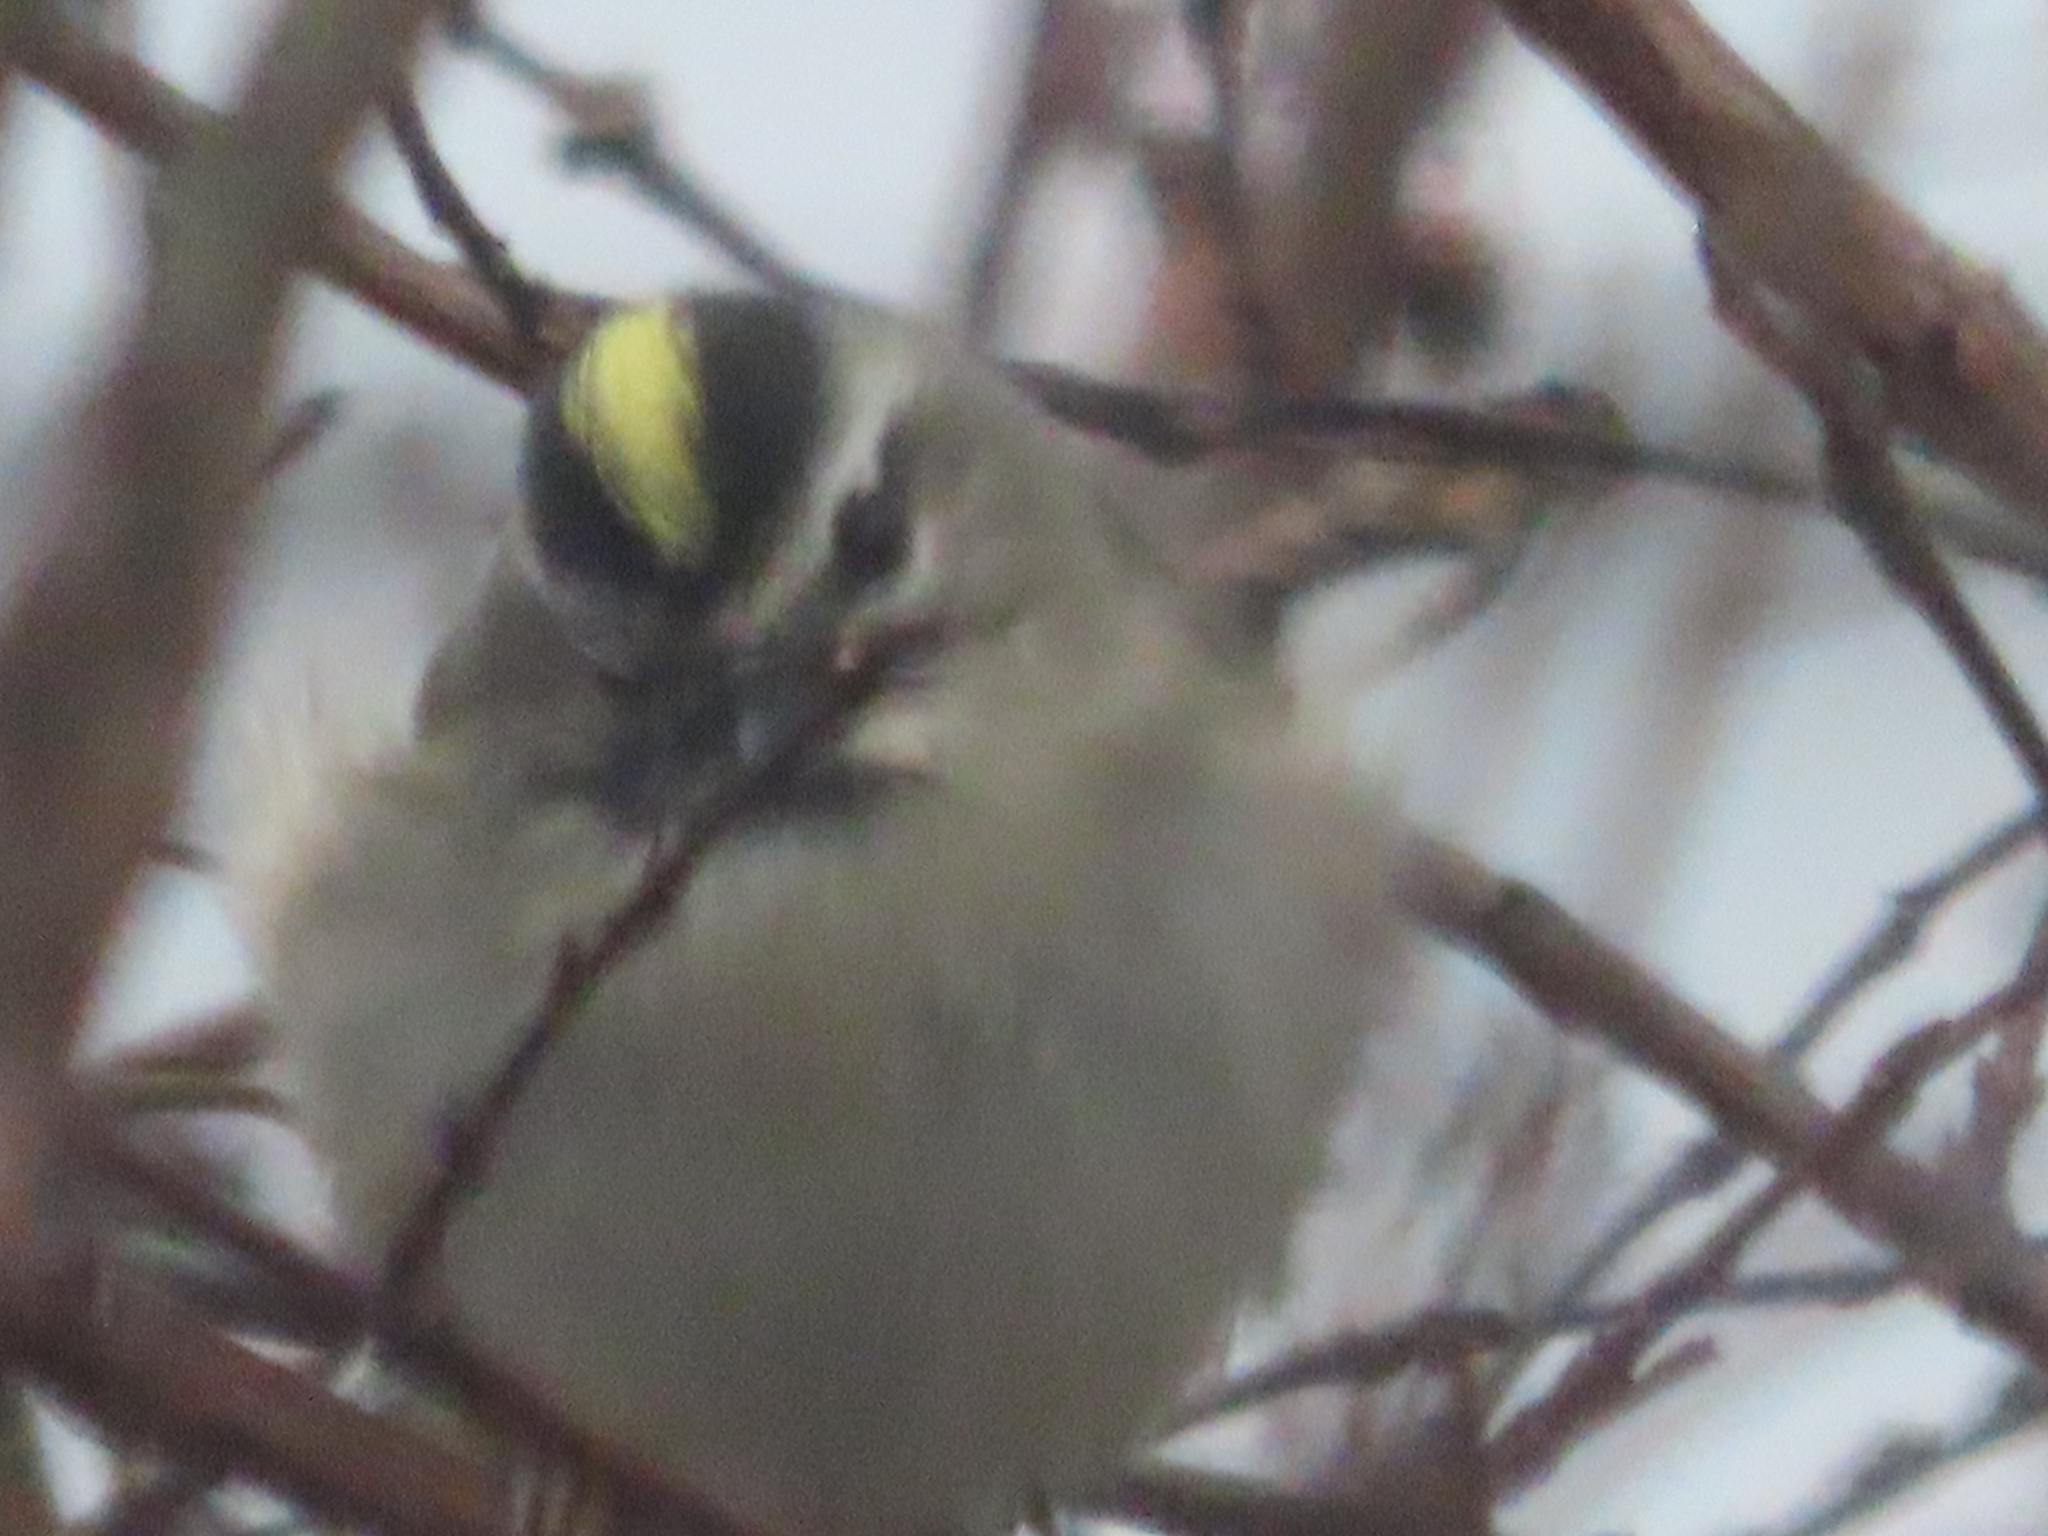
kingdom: Animalia
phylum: Chordata
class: Aves
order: Passeriformes
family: Regulidae
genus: Regulus
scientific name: Regulus satrapa
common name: Golden-crowned kinglet
